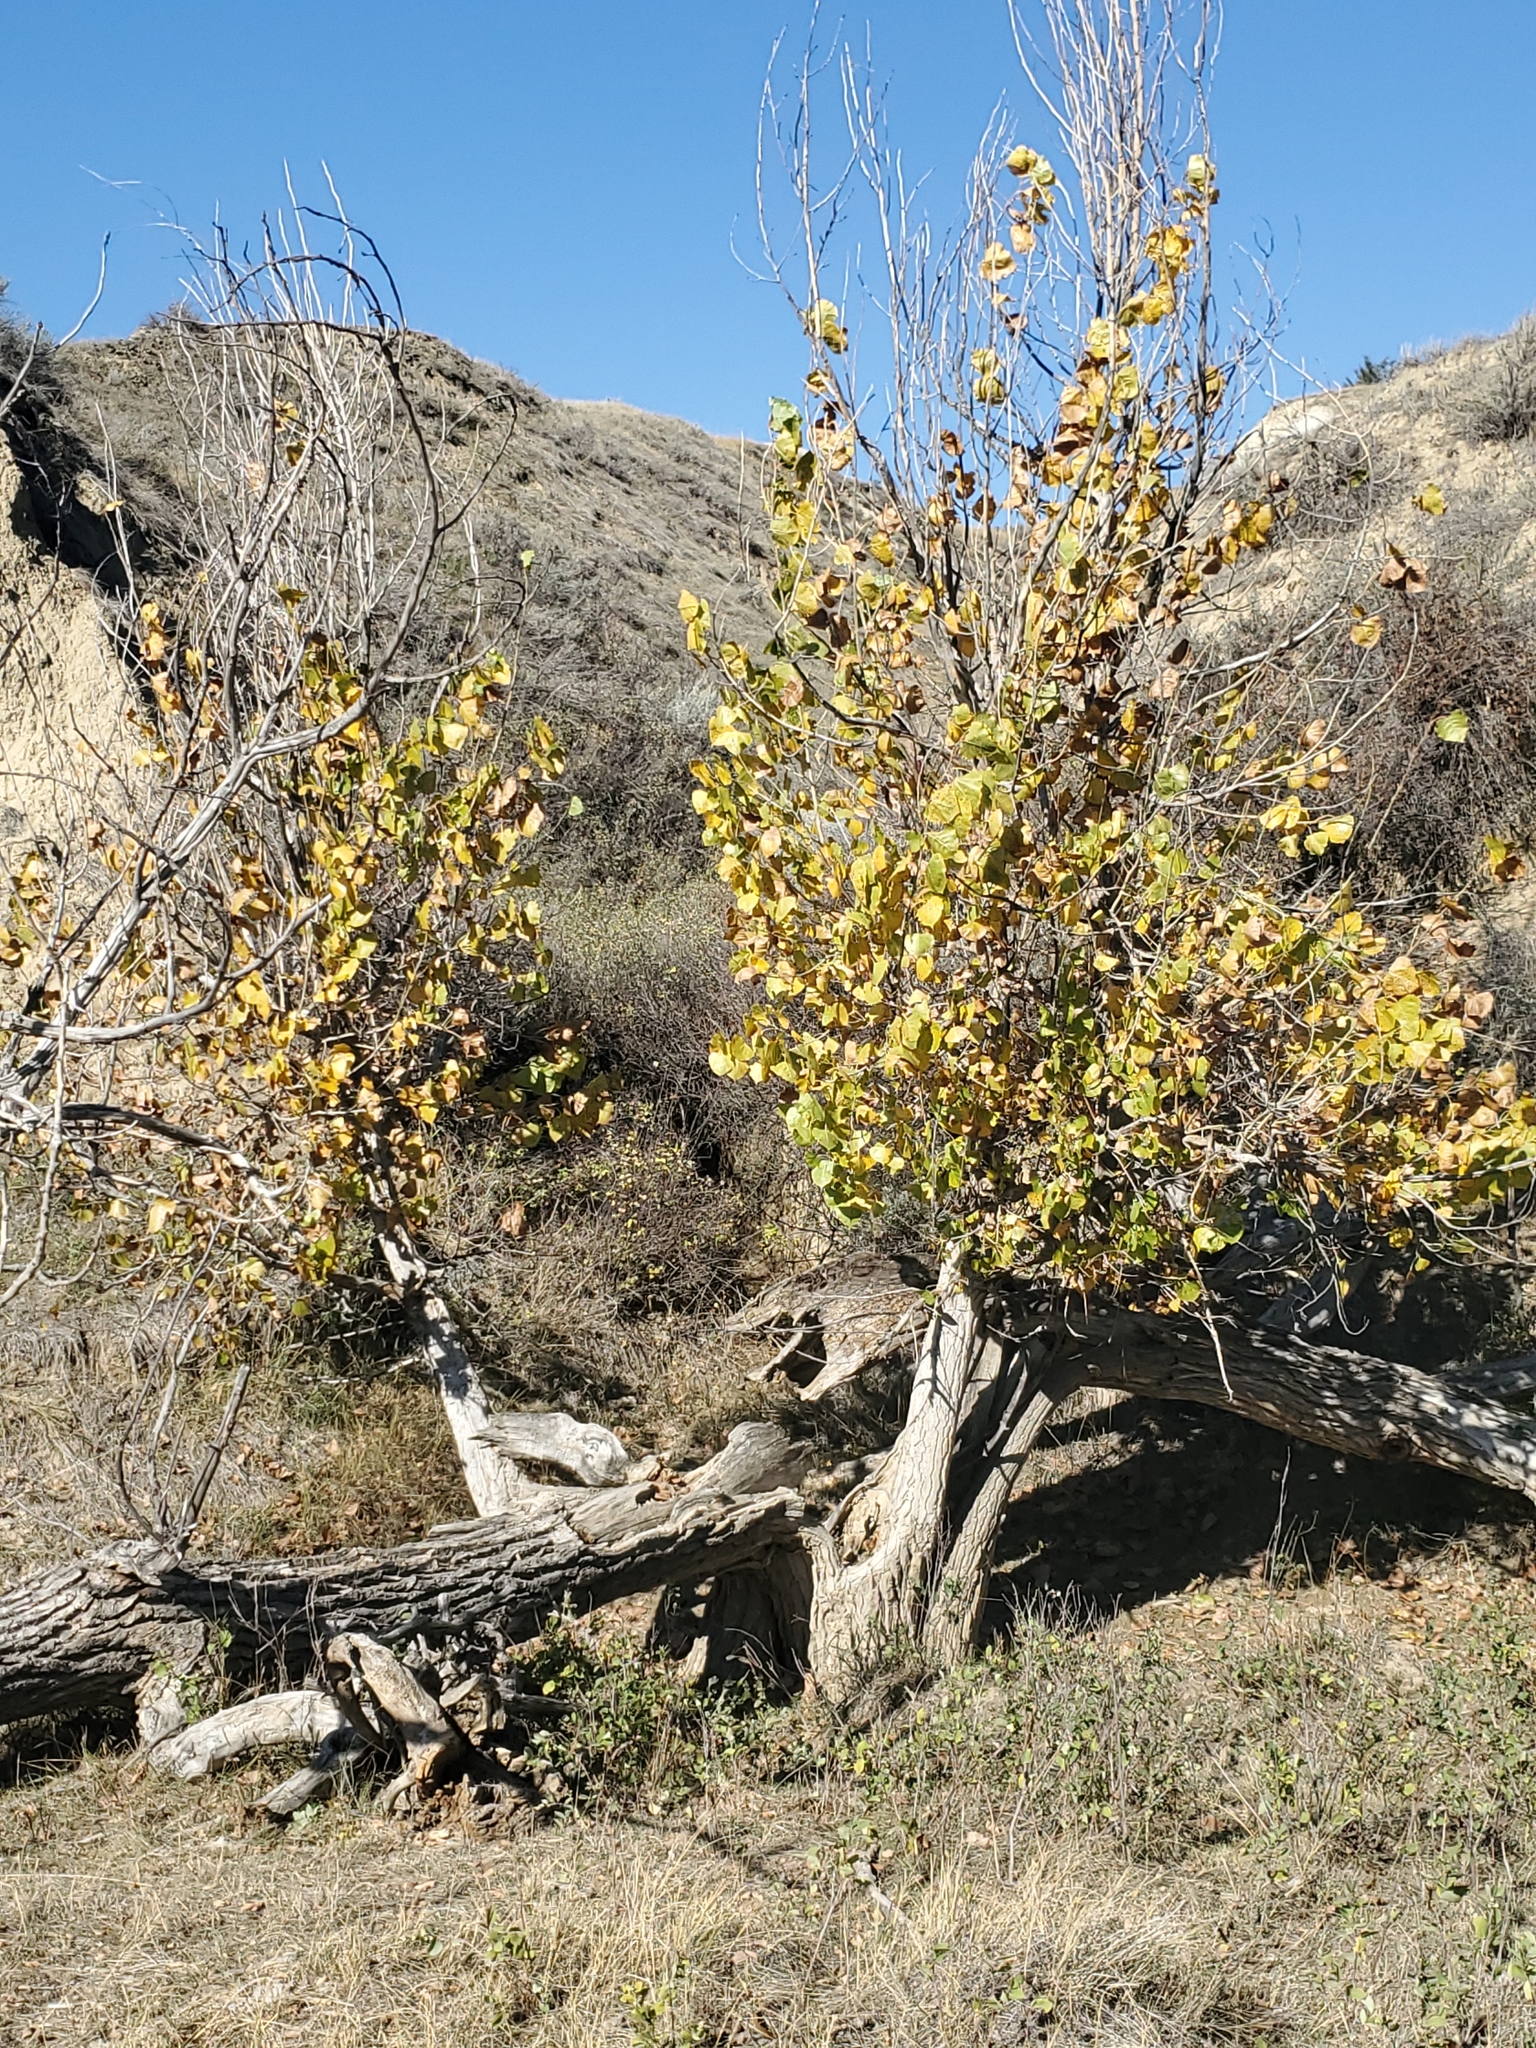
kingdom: Plantae
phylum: Tracheophyta
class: Magnoliopsida
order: Malpighiales
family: Salicaceae
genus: Populus
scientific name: Populus deltoides
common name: Eastern cottonwood
